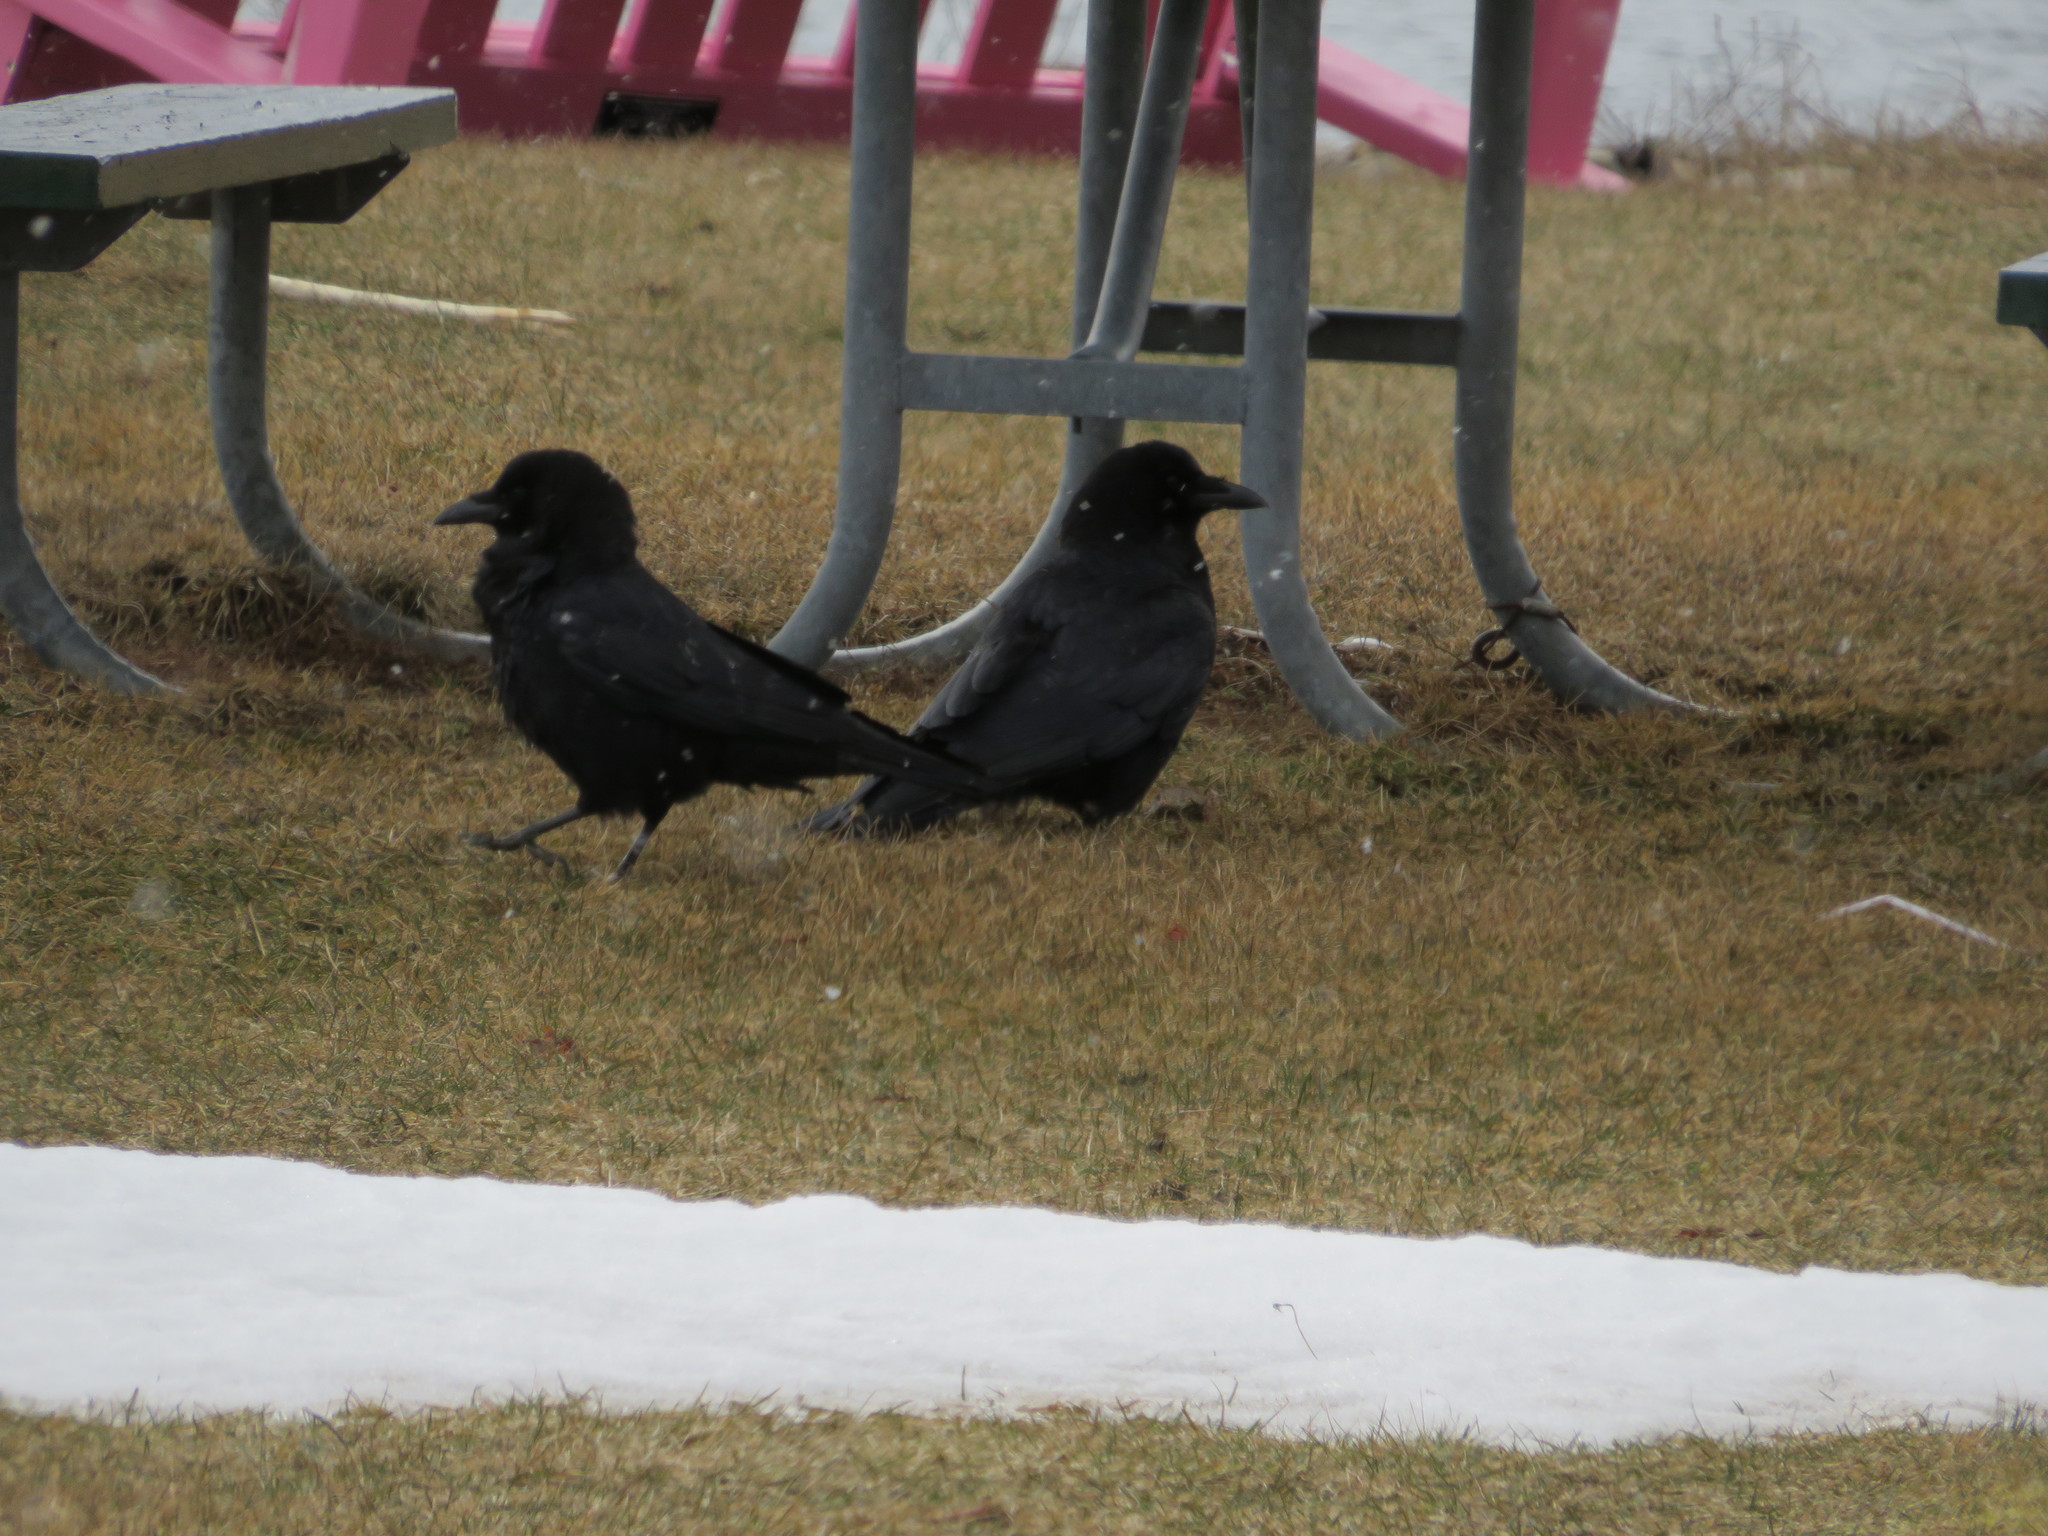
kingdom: Animalia
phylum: Chordata
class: Aves
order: Passeriformes
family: Corvidae
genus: Corvus
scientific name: Corvus brachyrhynchos
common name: American crow
